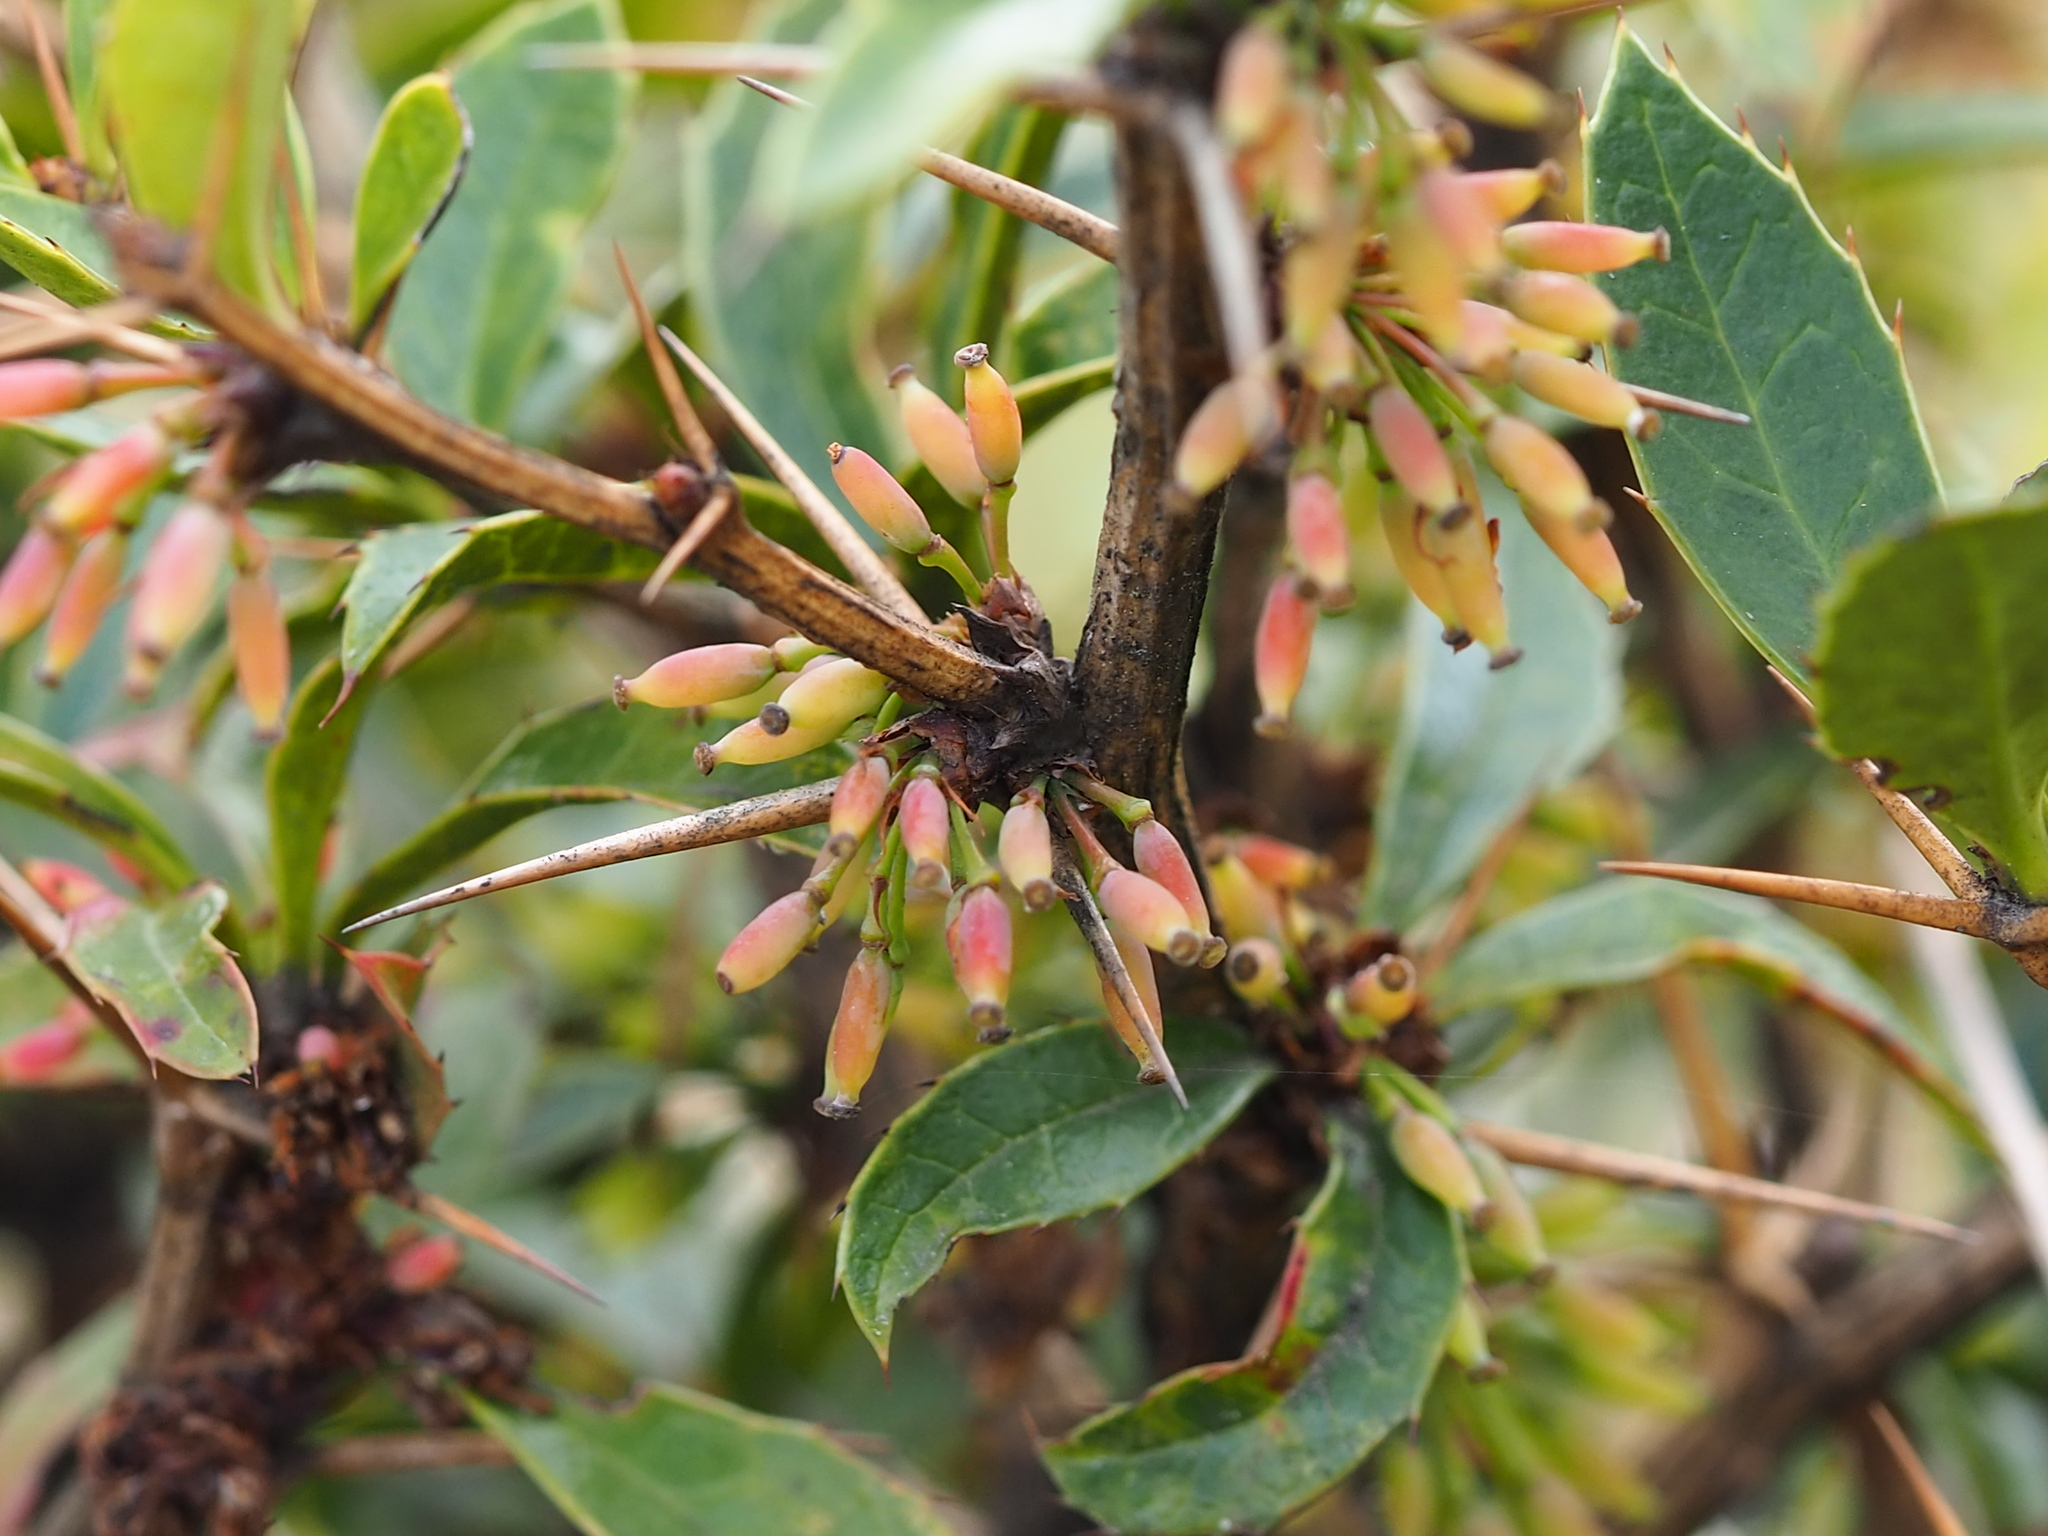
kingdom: Plantae
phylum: Tracheophyta
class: Magnoliopsida
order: Ranunculales
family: Berberidaceae
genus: Berberis
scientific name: Berberis kawakamii
